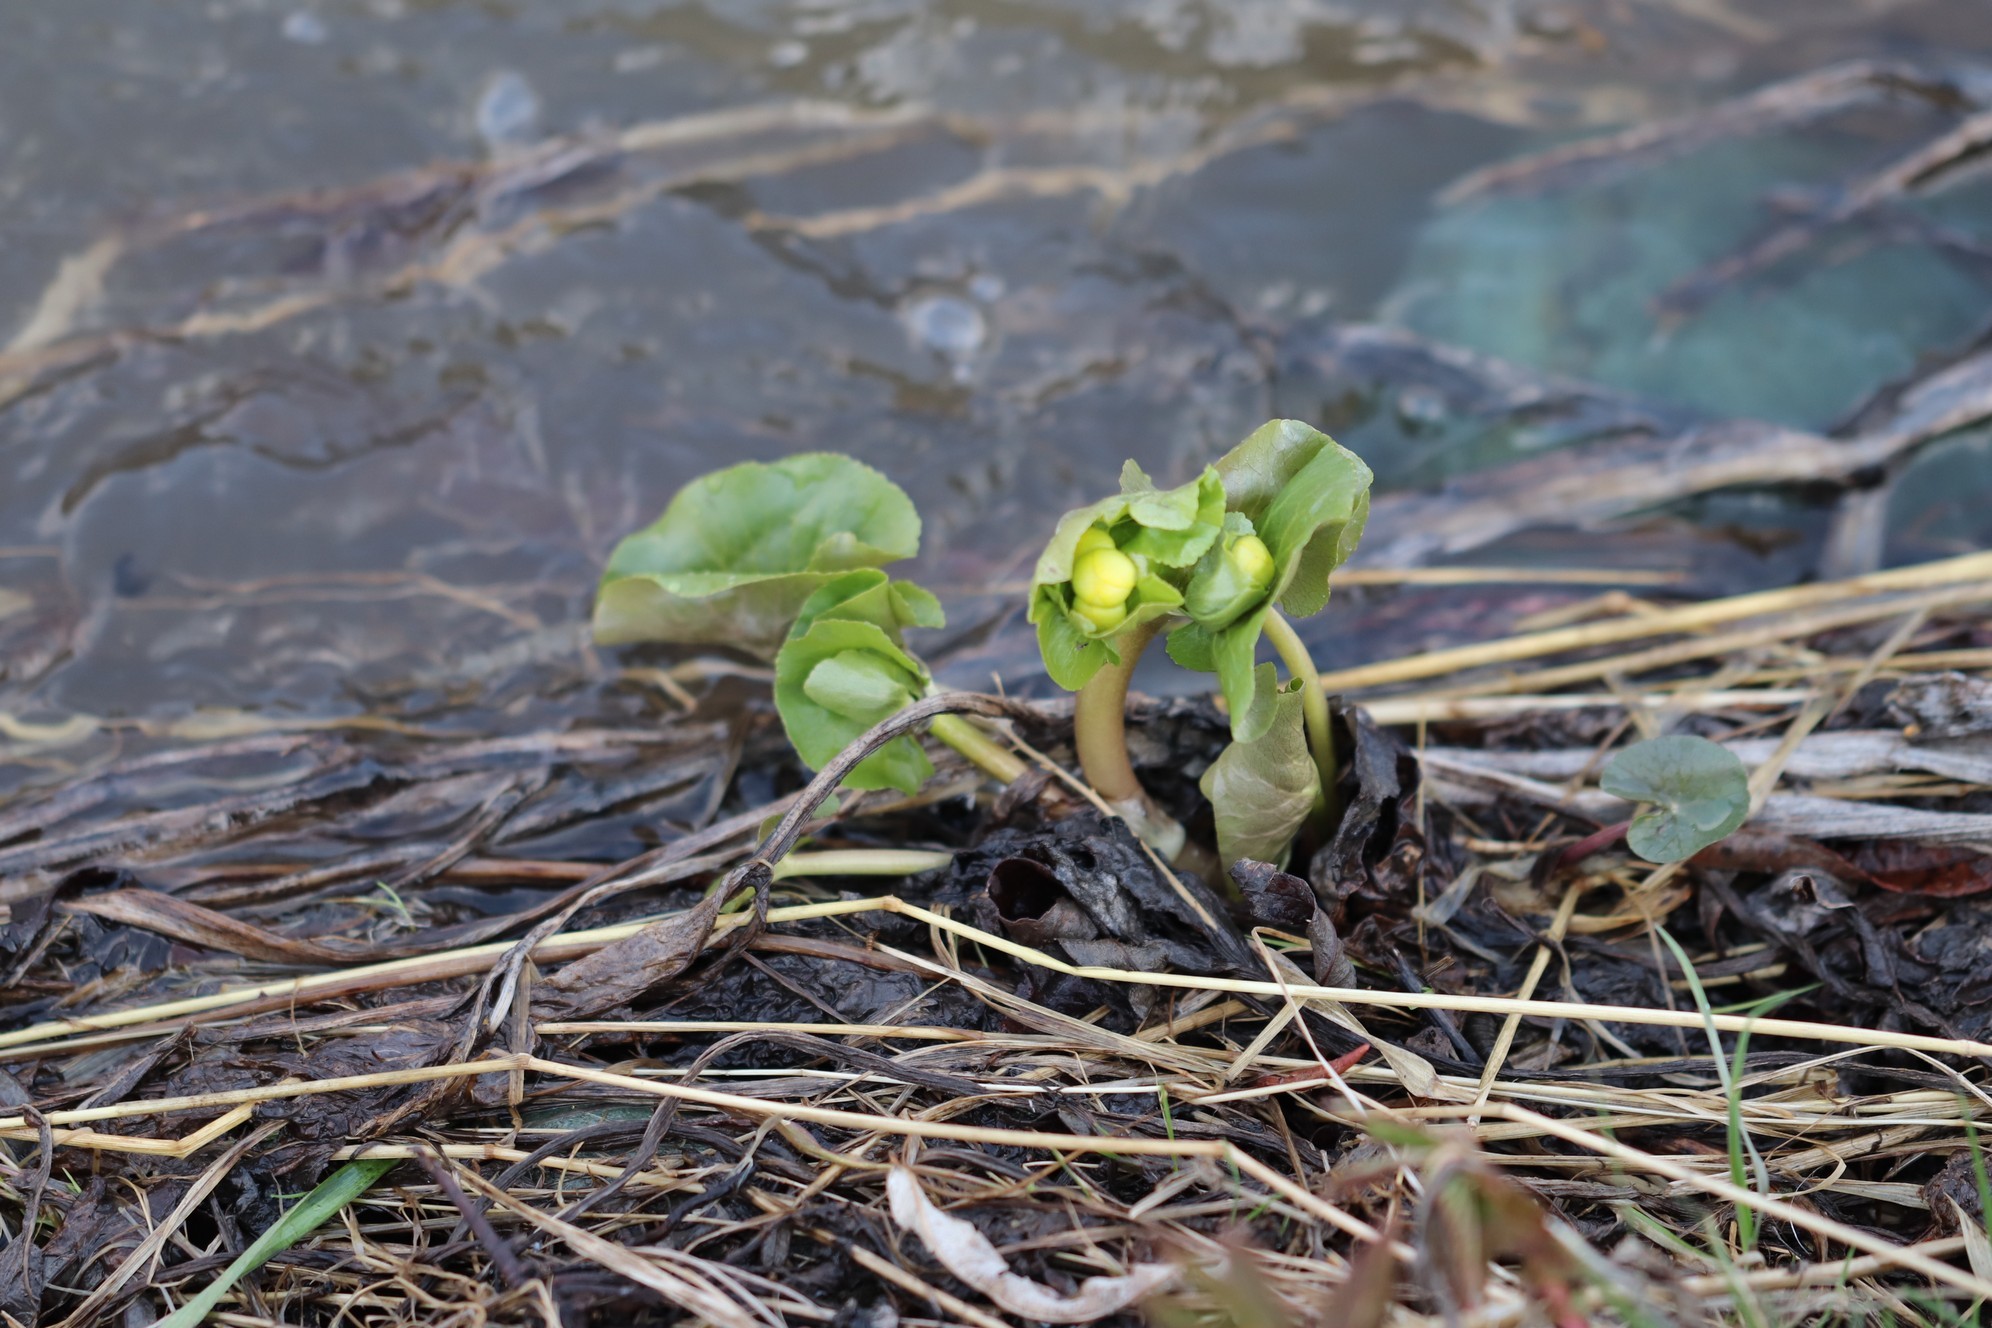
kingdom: Plantae
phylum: Tracheophyta
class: Magnoliopsida
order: Ranunculales
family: Ranunculaceae
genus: Caltha
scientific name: Caltha palustris
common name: Marsh marigold
